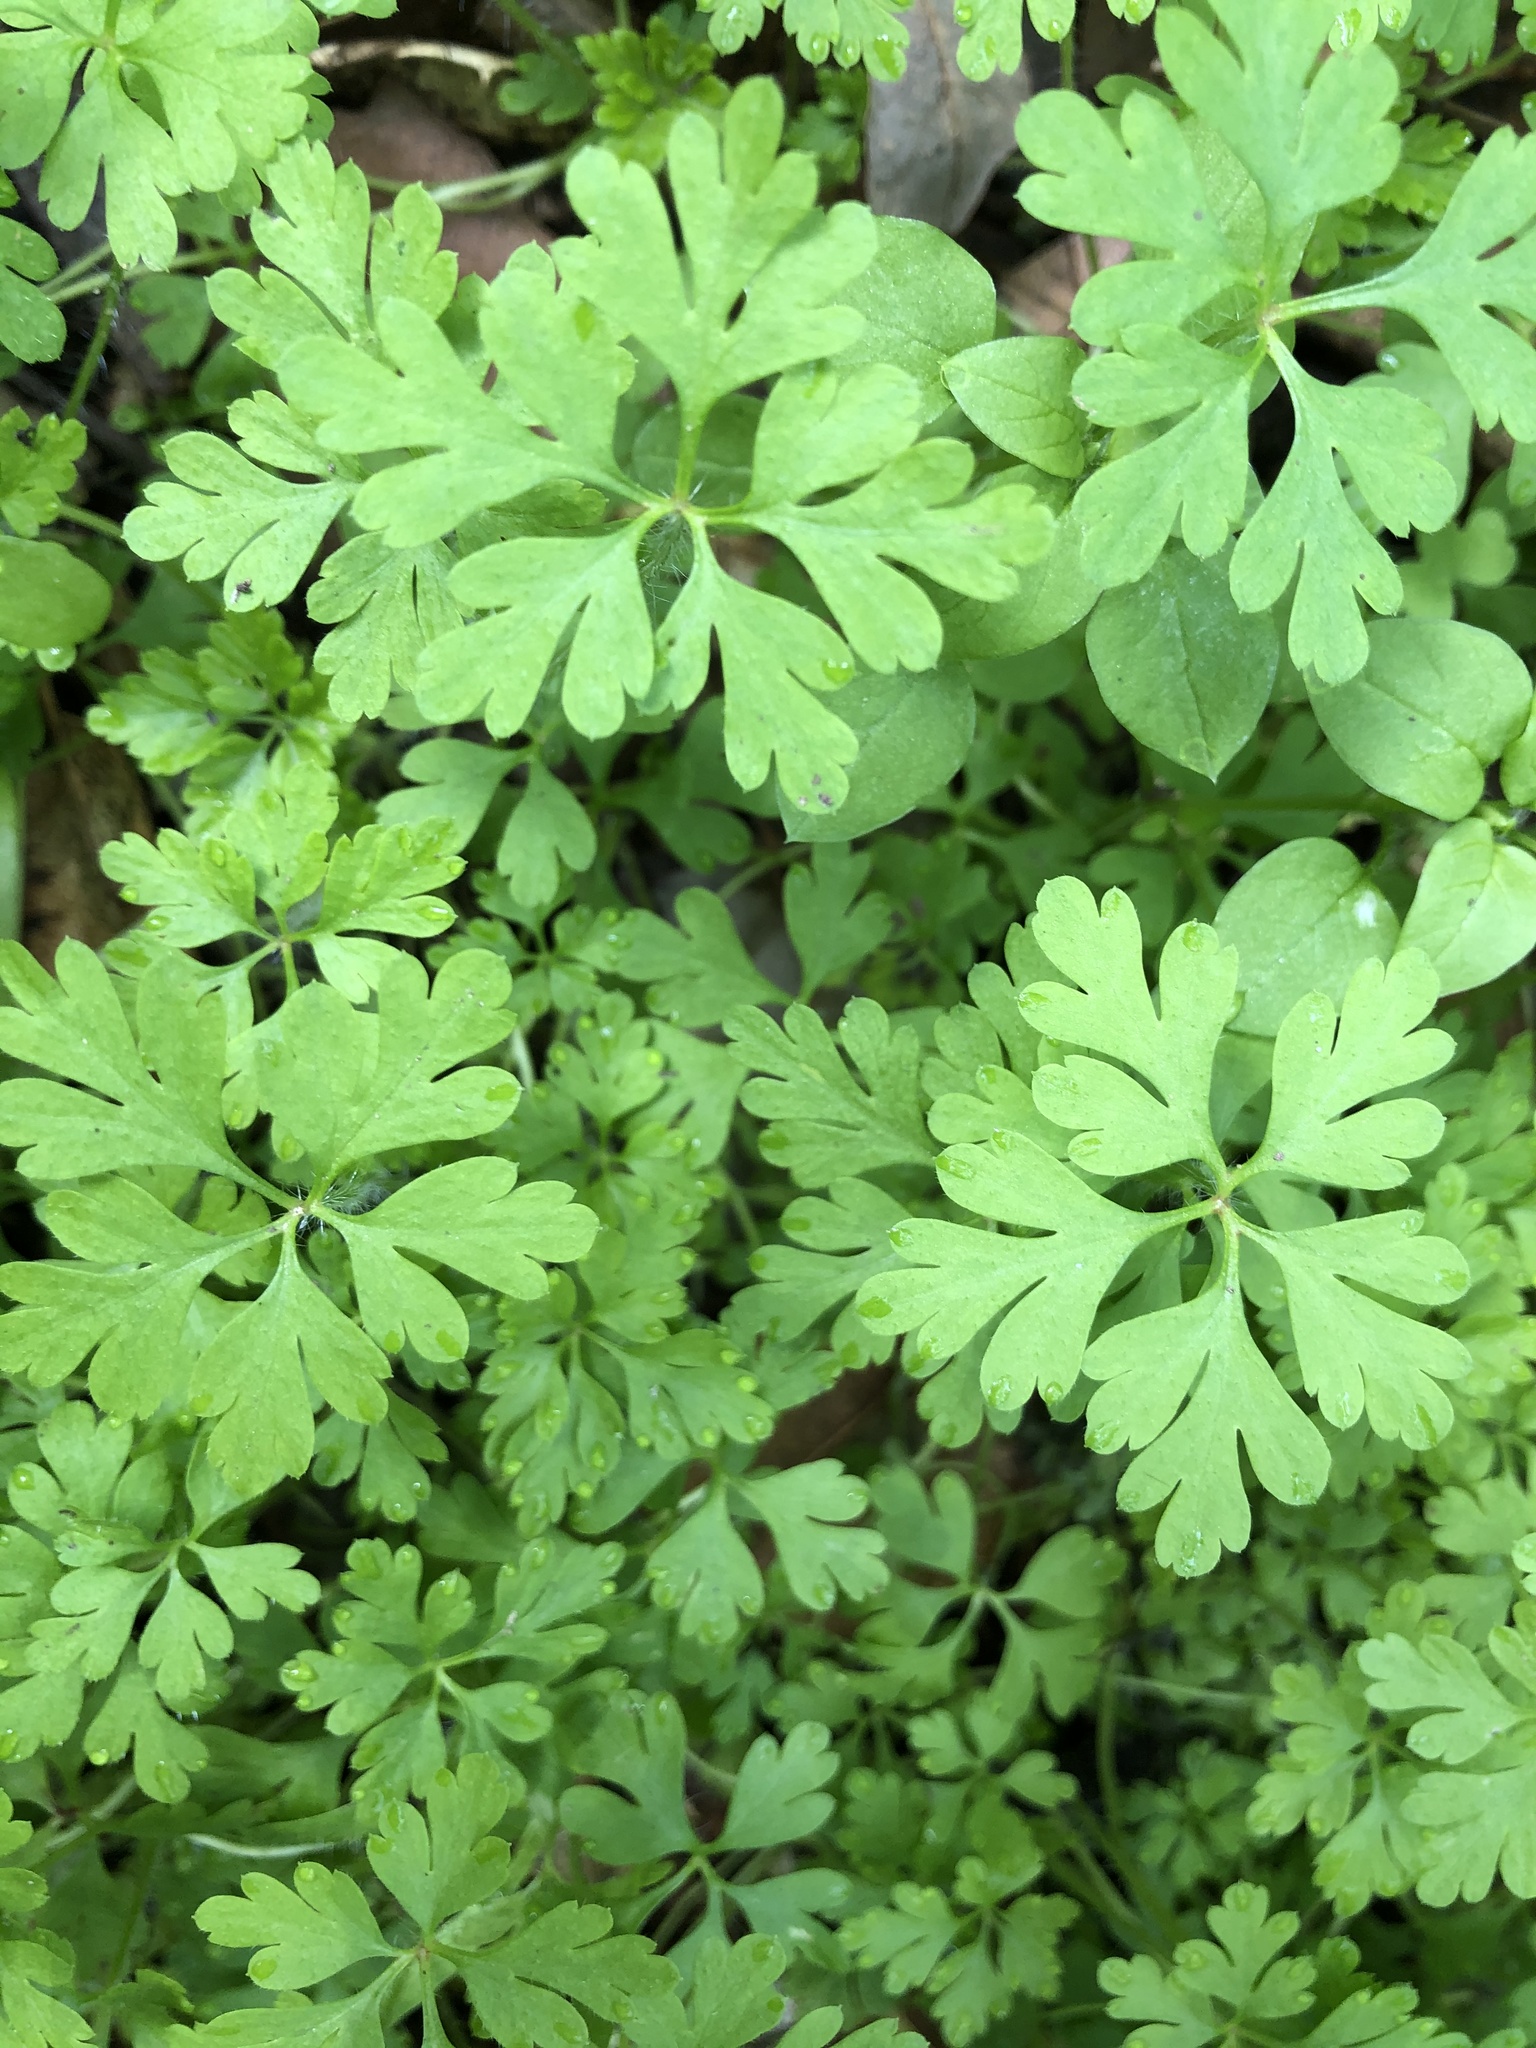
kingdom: Plantae
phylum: Tracheophyta
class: Magnoliopsida
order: Geraniales
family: Geraniaceae
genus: Geranium
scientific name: Geranium
